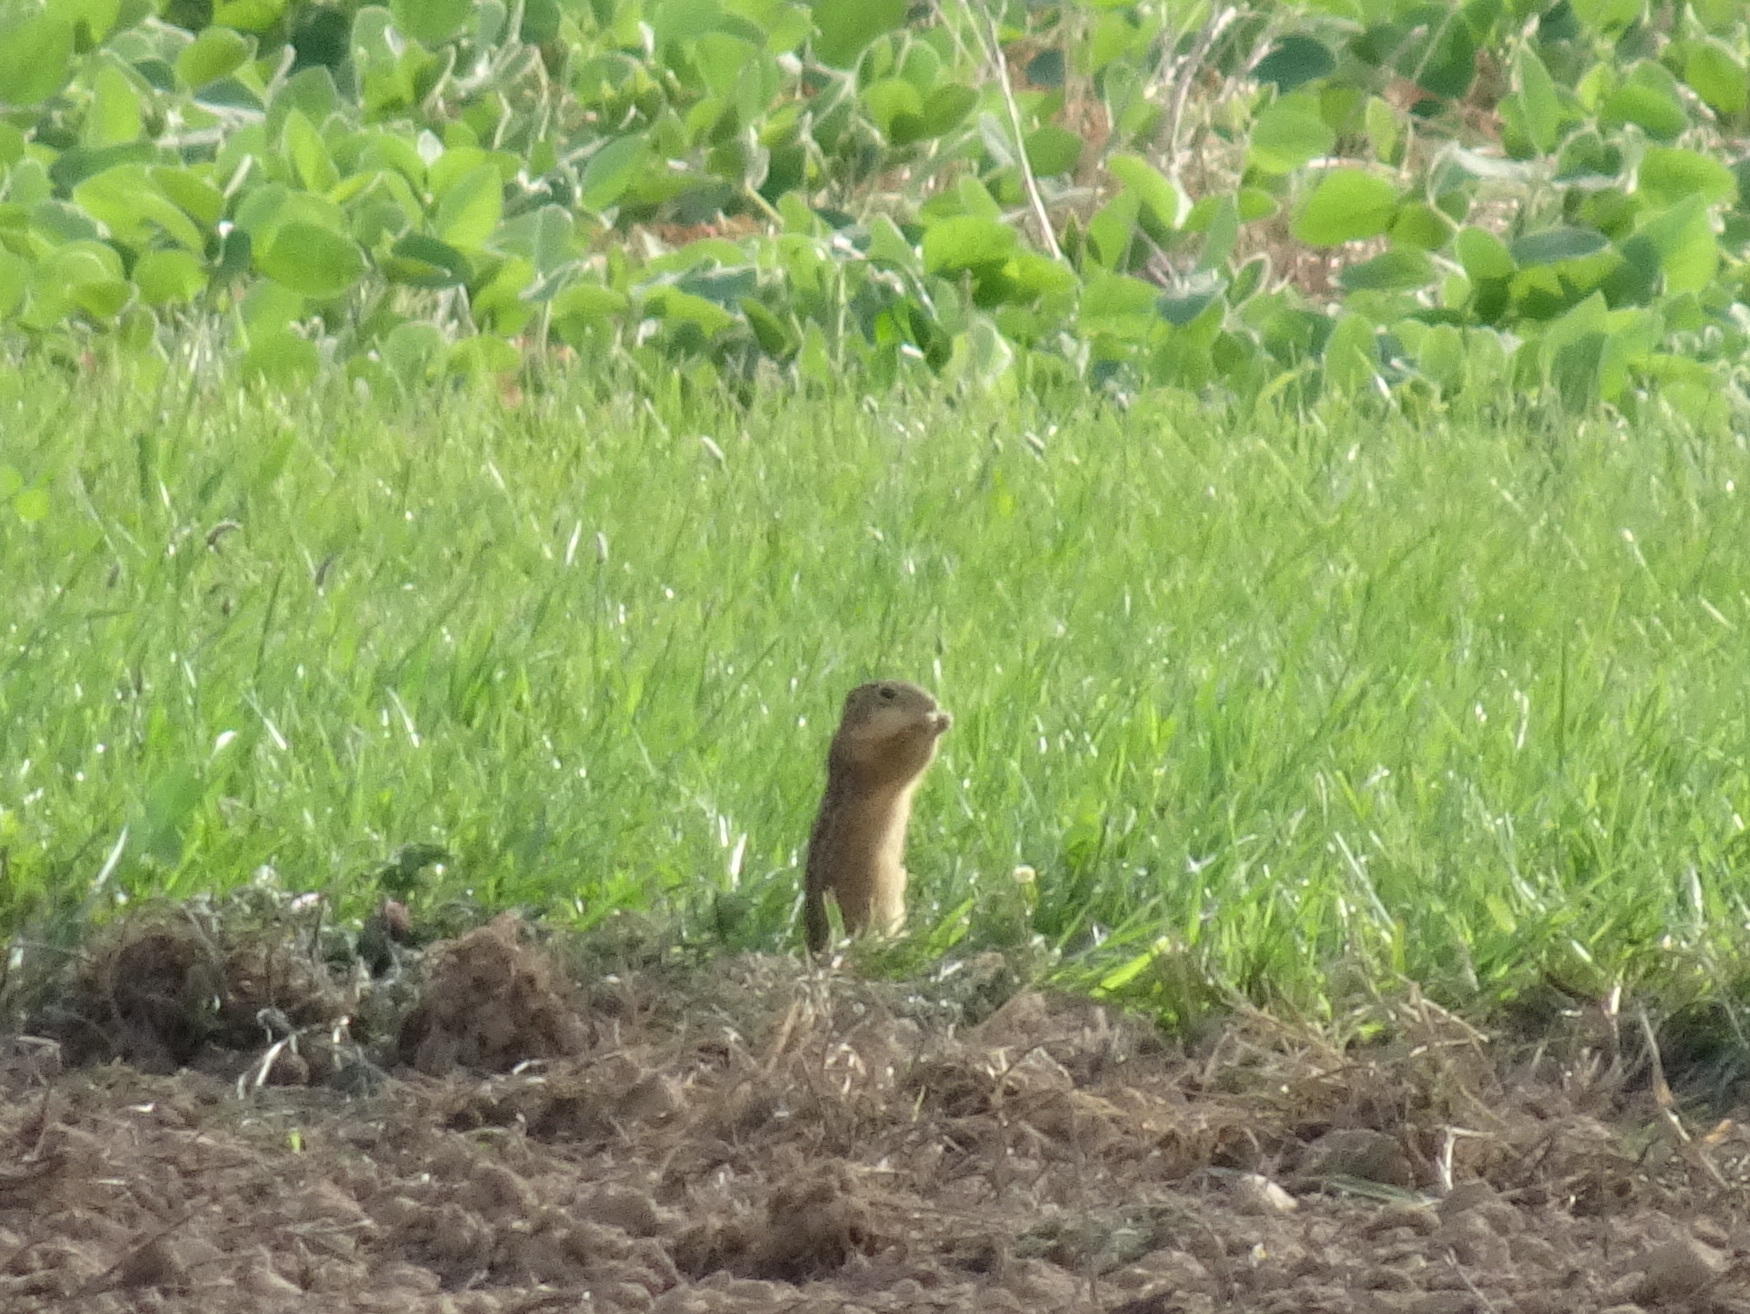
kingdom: Animalia
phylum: Chordata
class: Mammalia
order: Rodentia
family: Sciuridae
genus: Ictidomys
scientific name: Ictidomys tridecemlineatus
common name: Thirteen-lined ground squirrel
